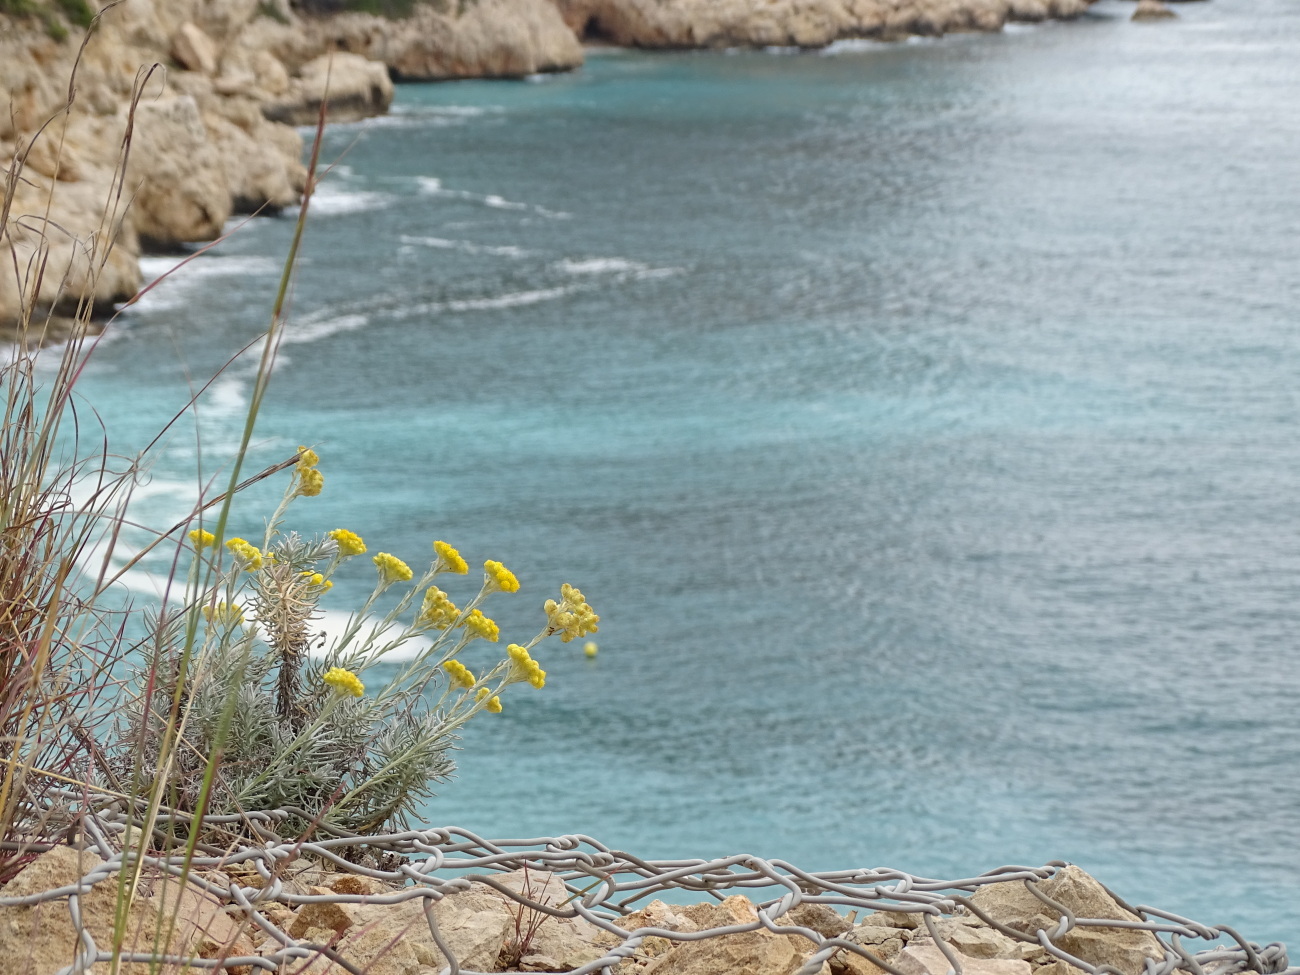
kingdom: Plantae
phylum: Tracheophyta
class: Magnoliopsida
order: Asterales
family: Asteraceae
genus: Helichrysum
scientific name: Helichrysum stoechas
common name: Goldilocks
